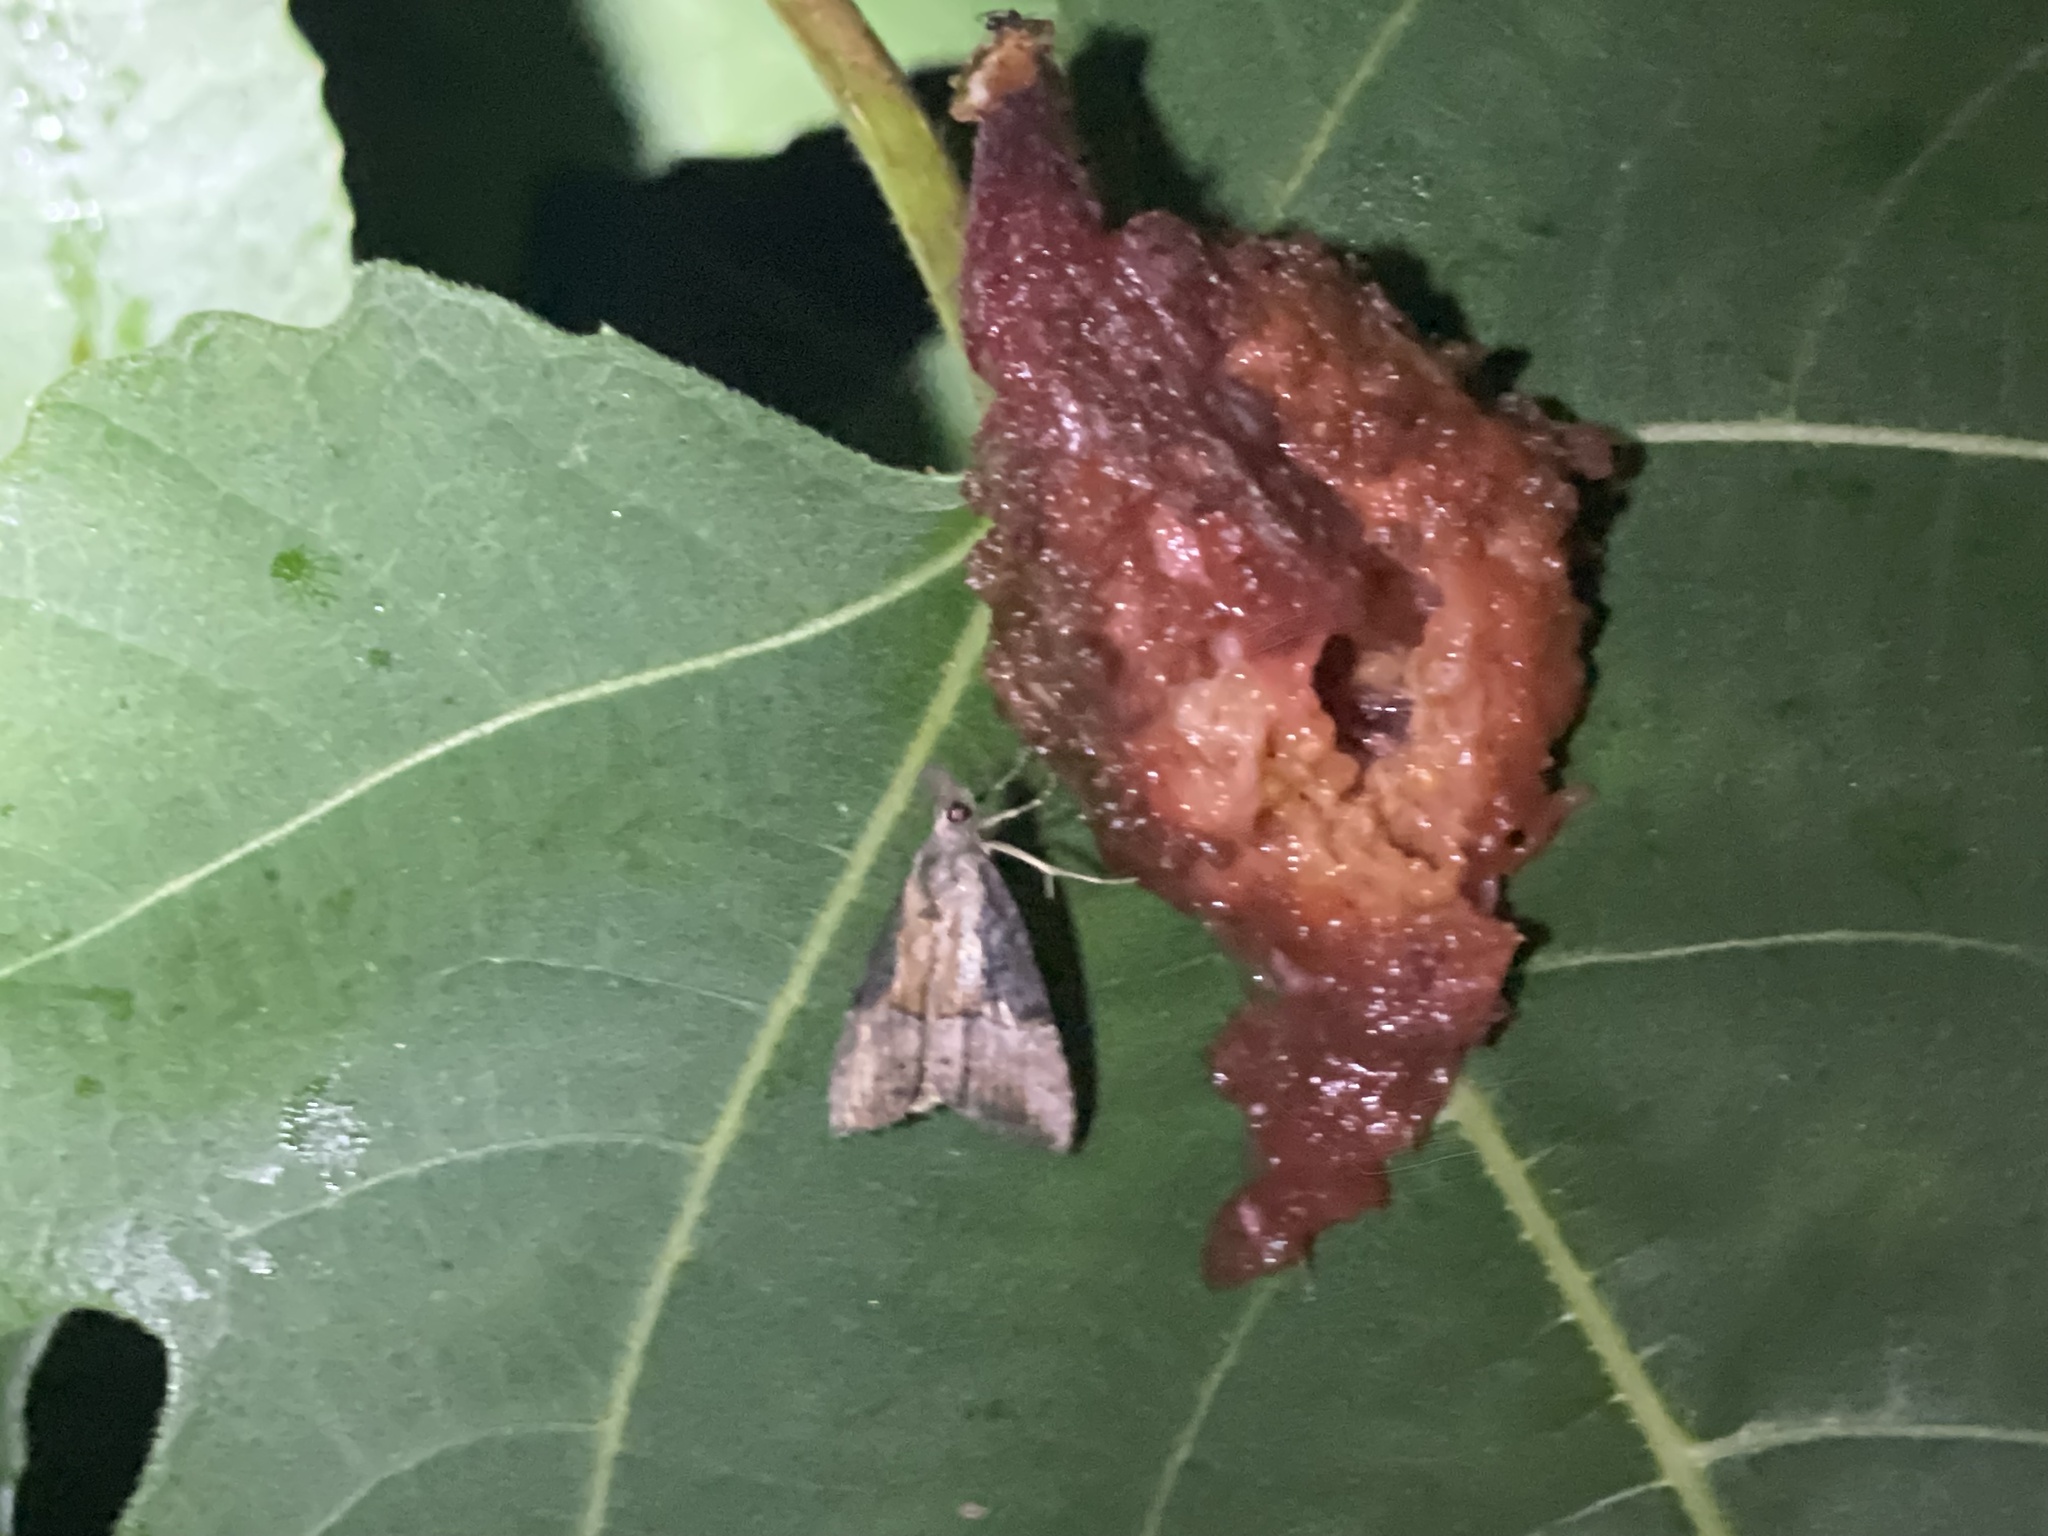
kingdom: Animalia
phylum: Arthropoda
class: Insecta
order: Lepidoptera
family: Erebidae
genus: Hypena
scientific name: Hypena scabra
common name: Green cloverworm
